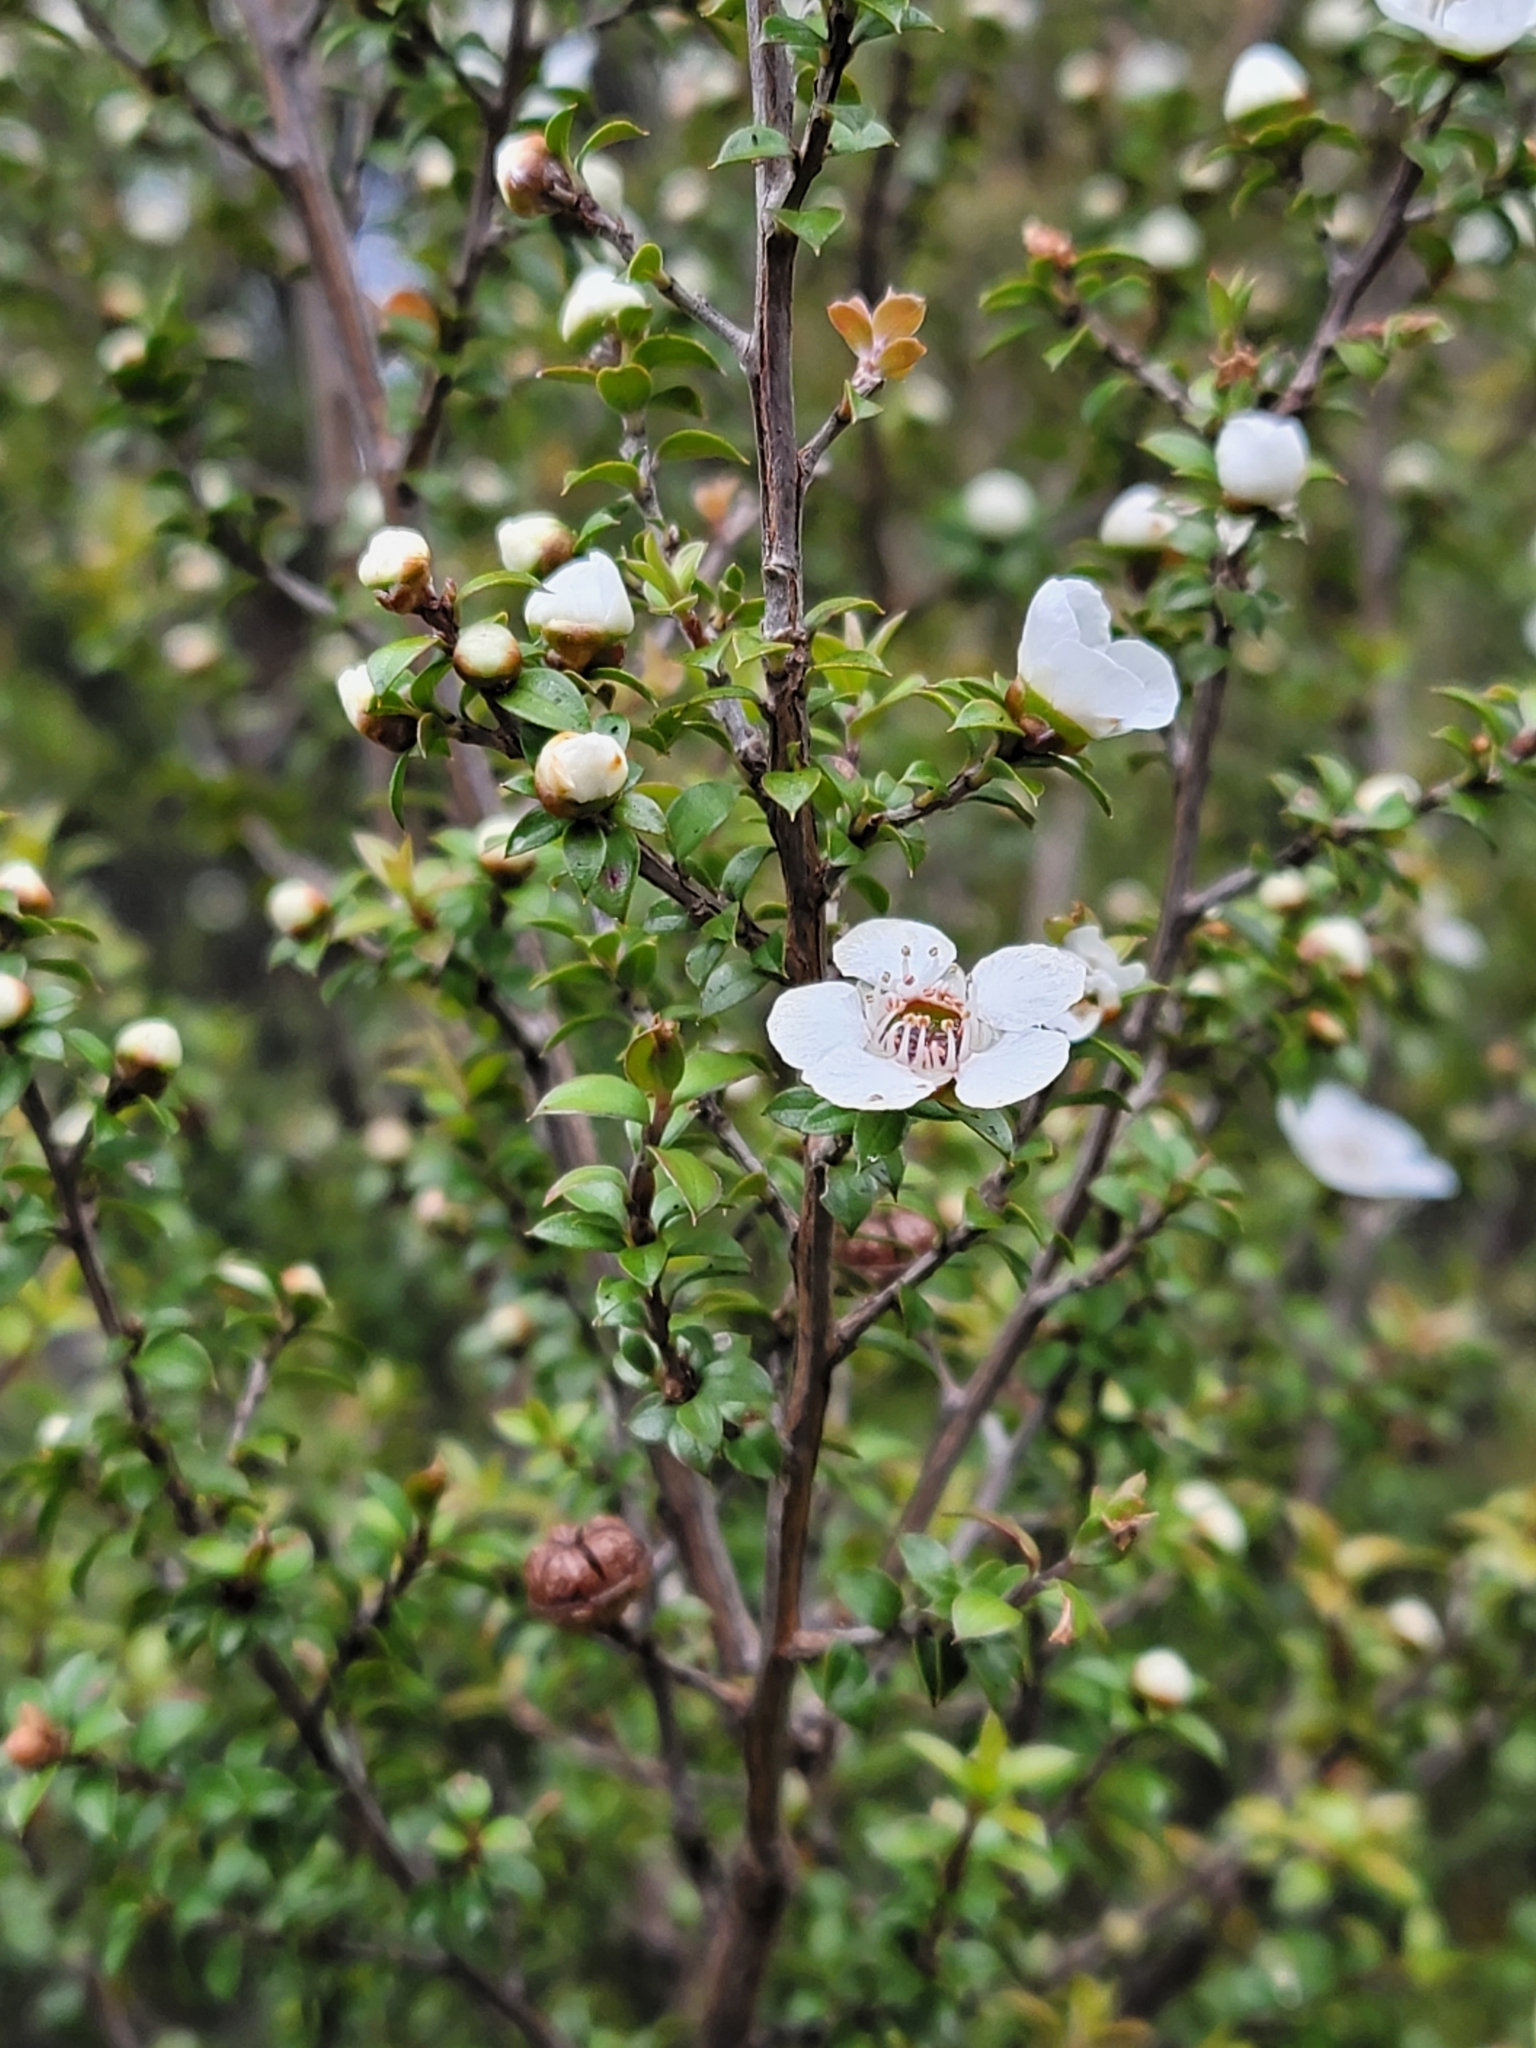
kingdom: Plantae
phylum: Tracheophyta
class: Magnoliopsida
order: Myrtales
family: Myrtaceae
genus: Leptospermum
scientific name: Leptospermum scoparium
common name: Broom tea-tree
